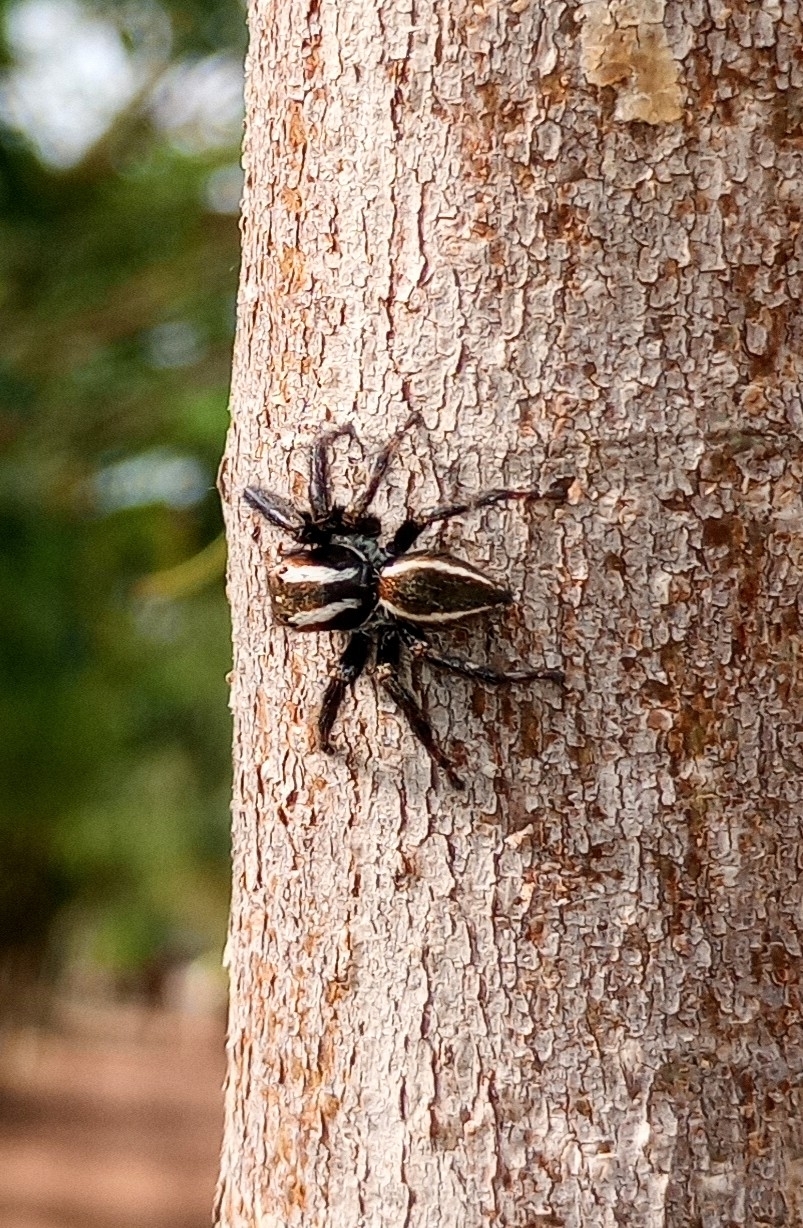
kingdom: Animalia
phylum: Arthropoda
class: Arachnida
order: Araneae
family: Salticidae
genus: Carrhotus
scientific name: Carrhotus viduus
